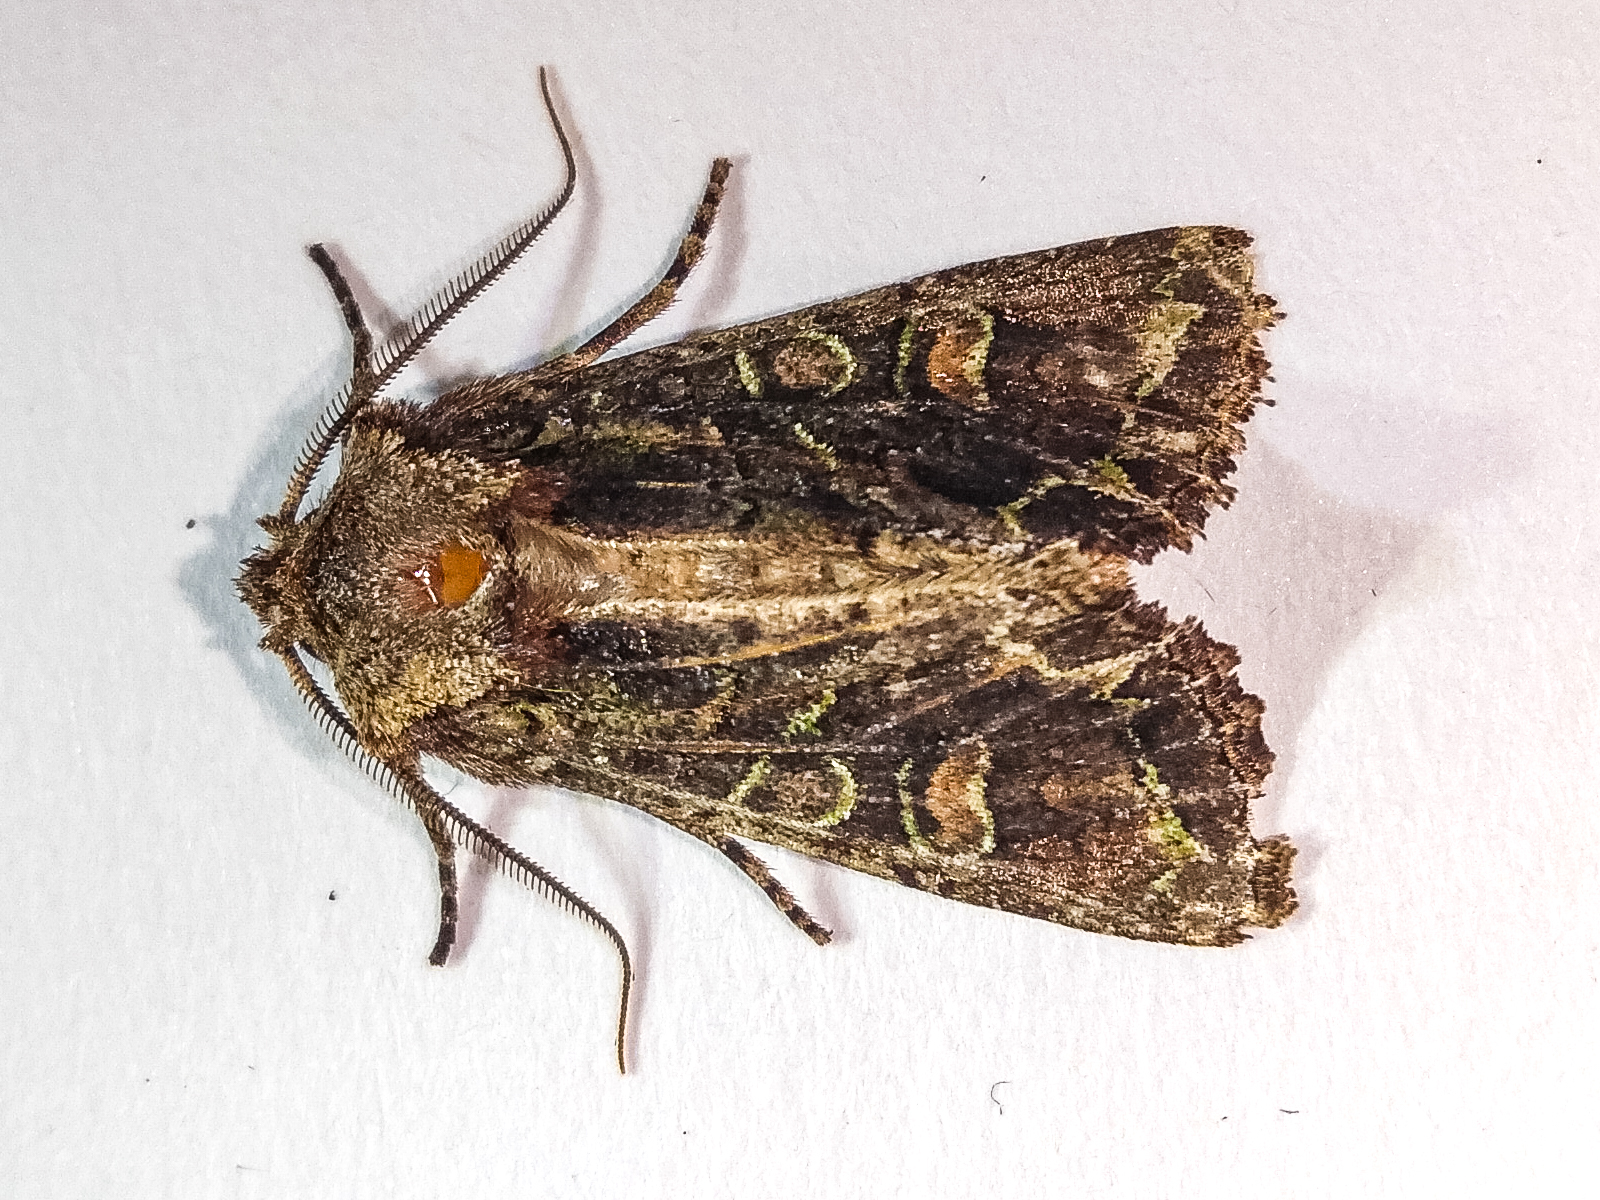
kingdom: Animalia
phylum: Arthropoda
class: Insecta
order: Lepidoptera
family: Noctuidae
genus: Ichneutica
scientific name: Ichneutica insignis
